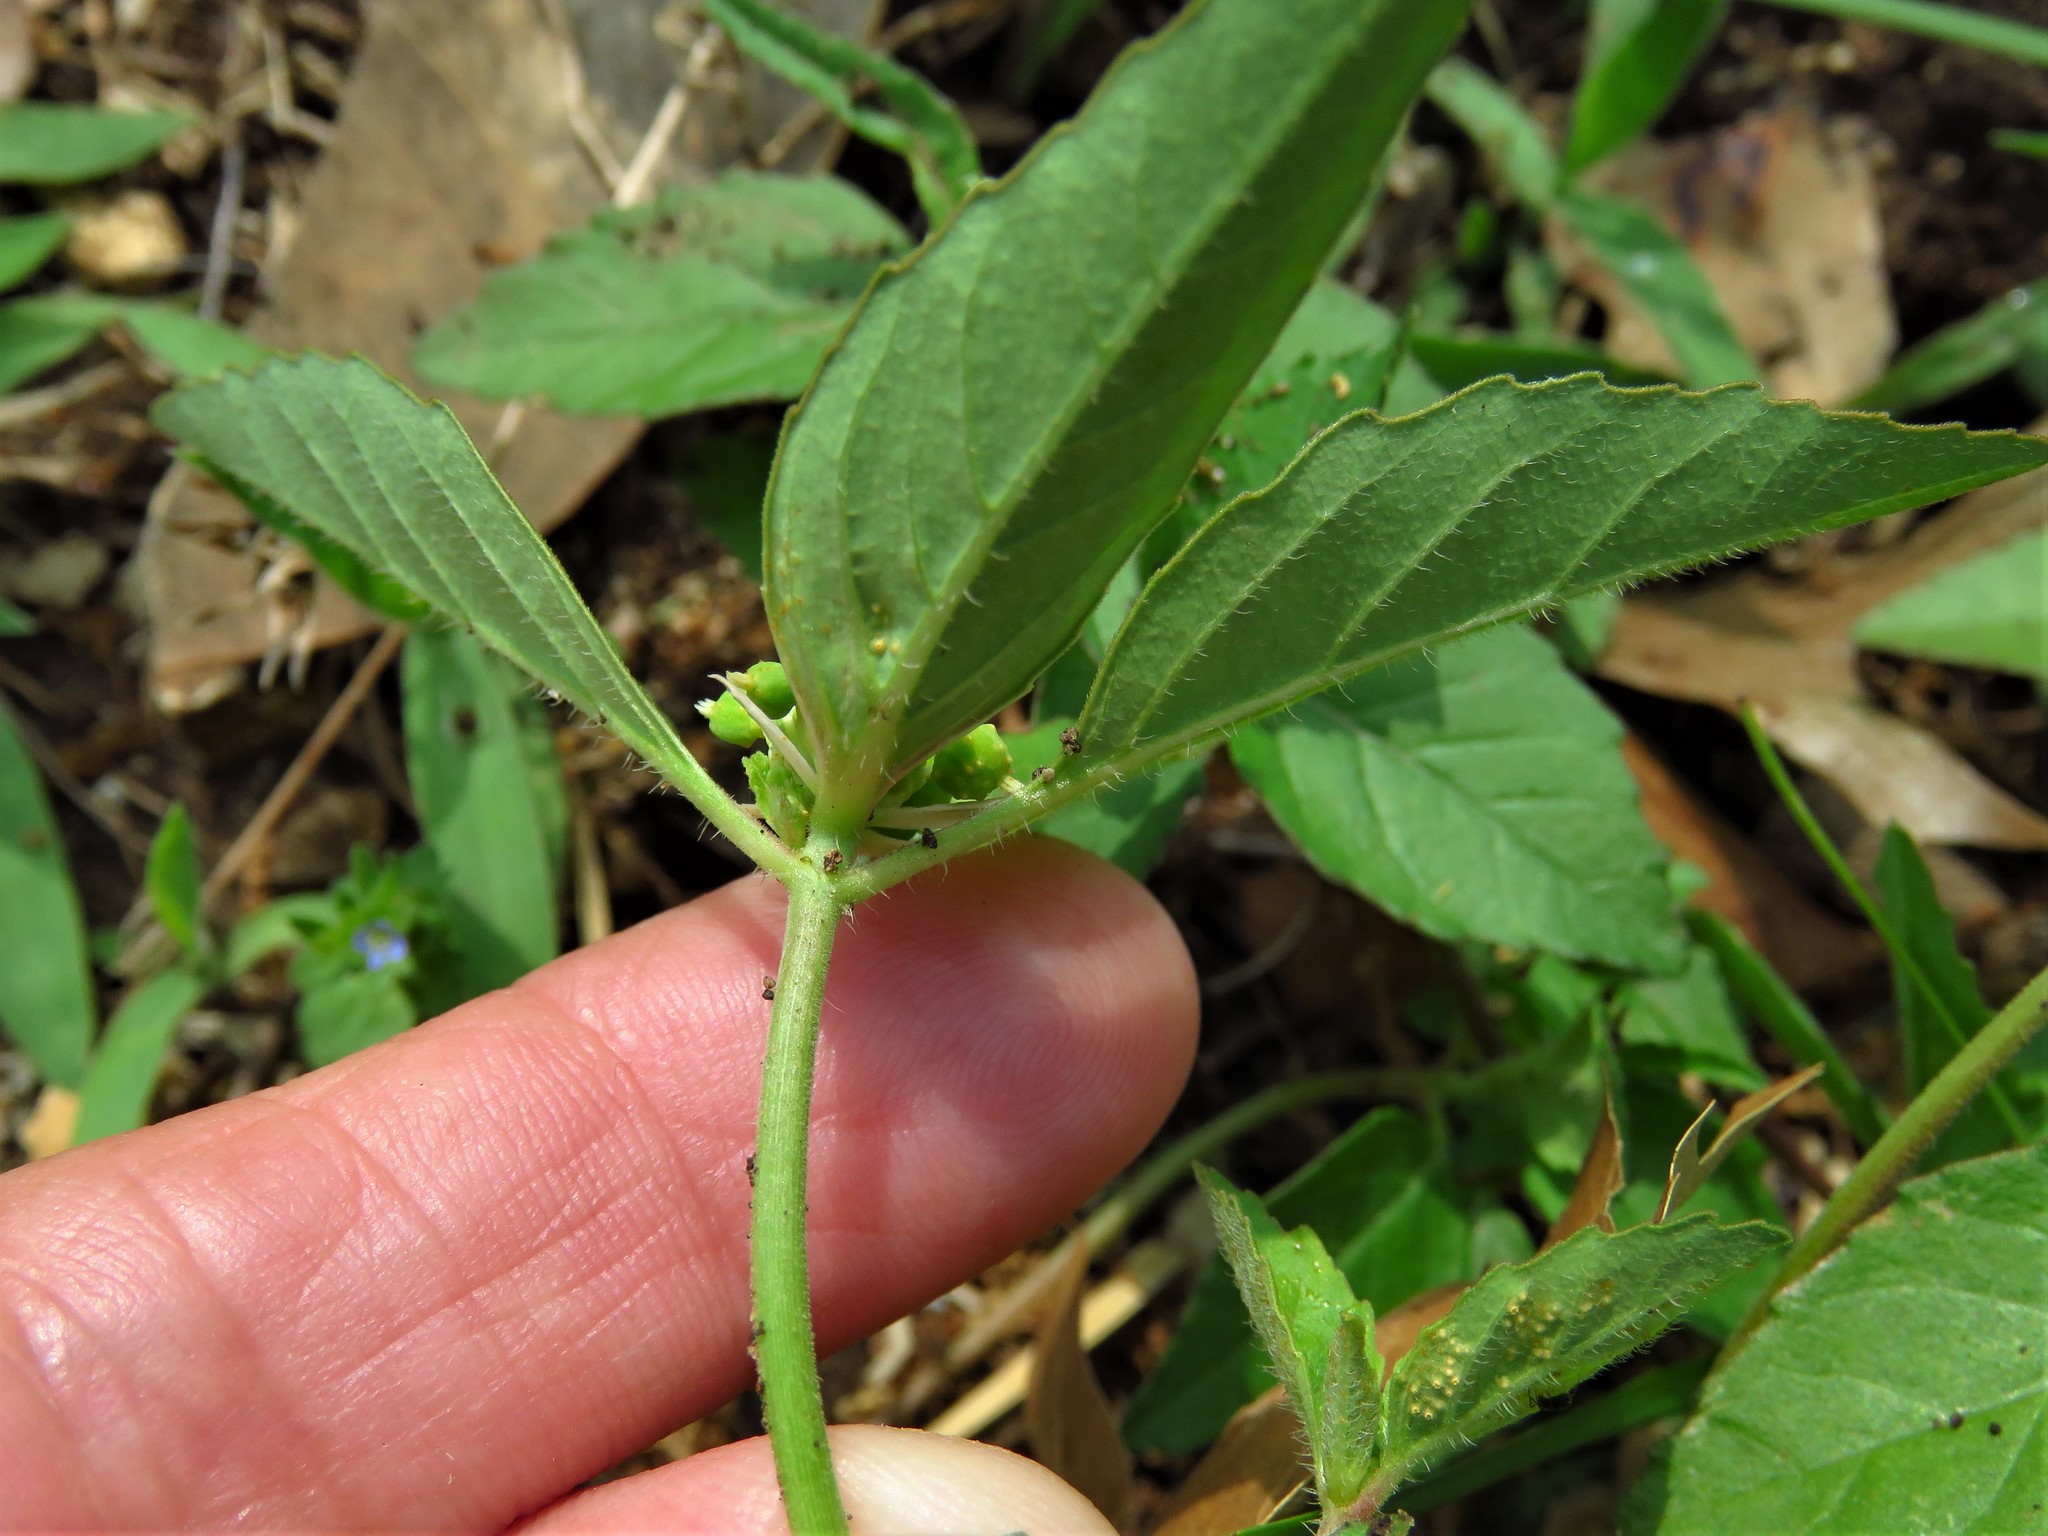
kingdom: Plantae
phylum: Tracheophyta
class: Magnoliopsida
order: Malpighiales
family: Euphorbiaceae
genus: Euphorbia
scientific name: Euphorbia dentata
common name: Dentate spurge
